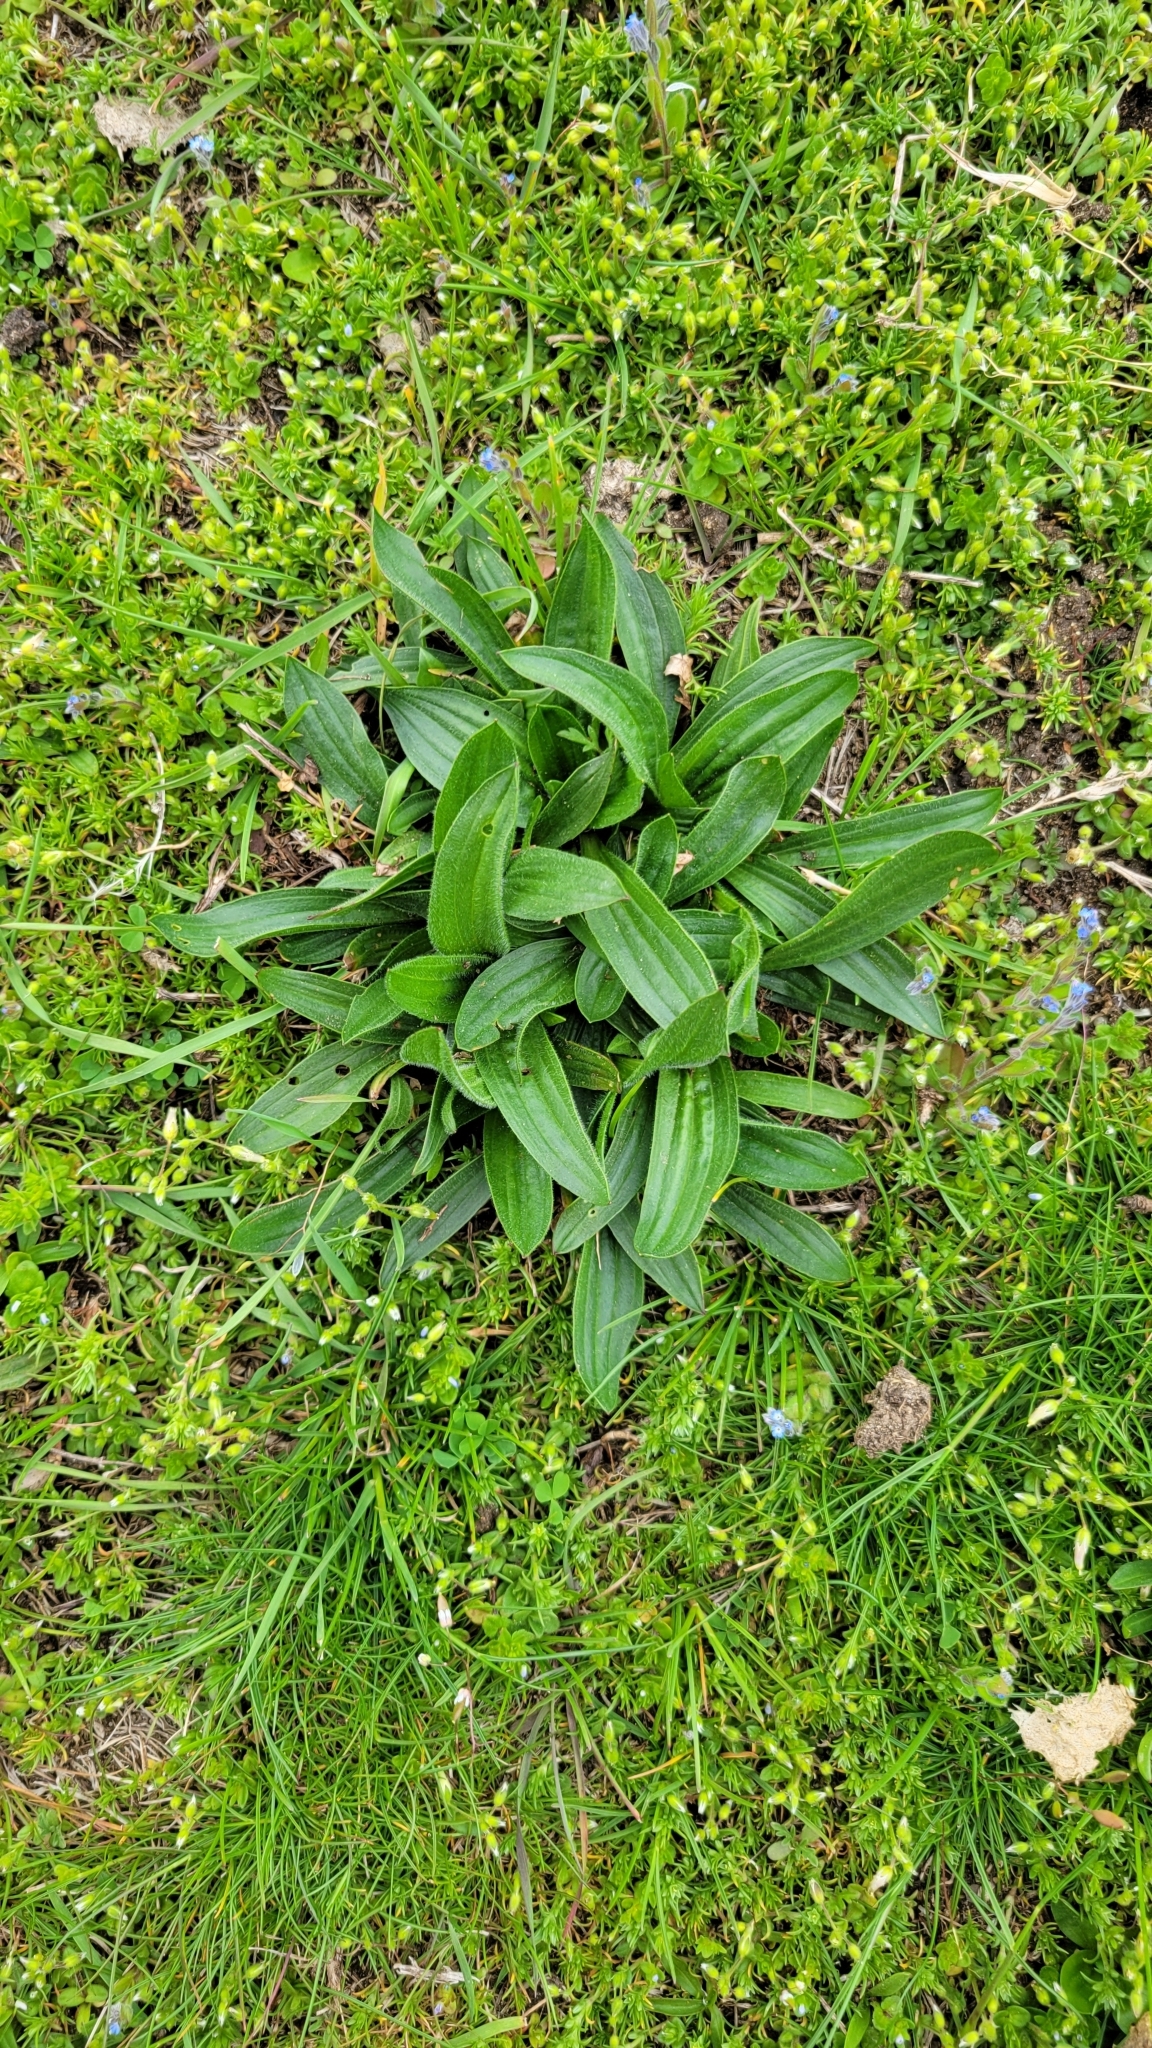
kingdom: Plantae
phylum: Tracheophyta
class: Magnoliopsida
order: Lamiales
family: Plantaginaceae
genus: Plantago
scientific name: Plantago lanceolata
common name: Ribwort plantain
